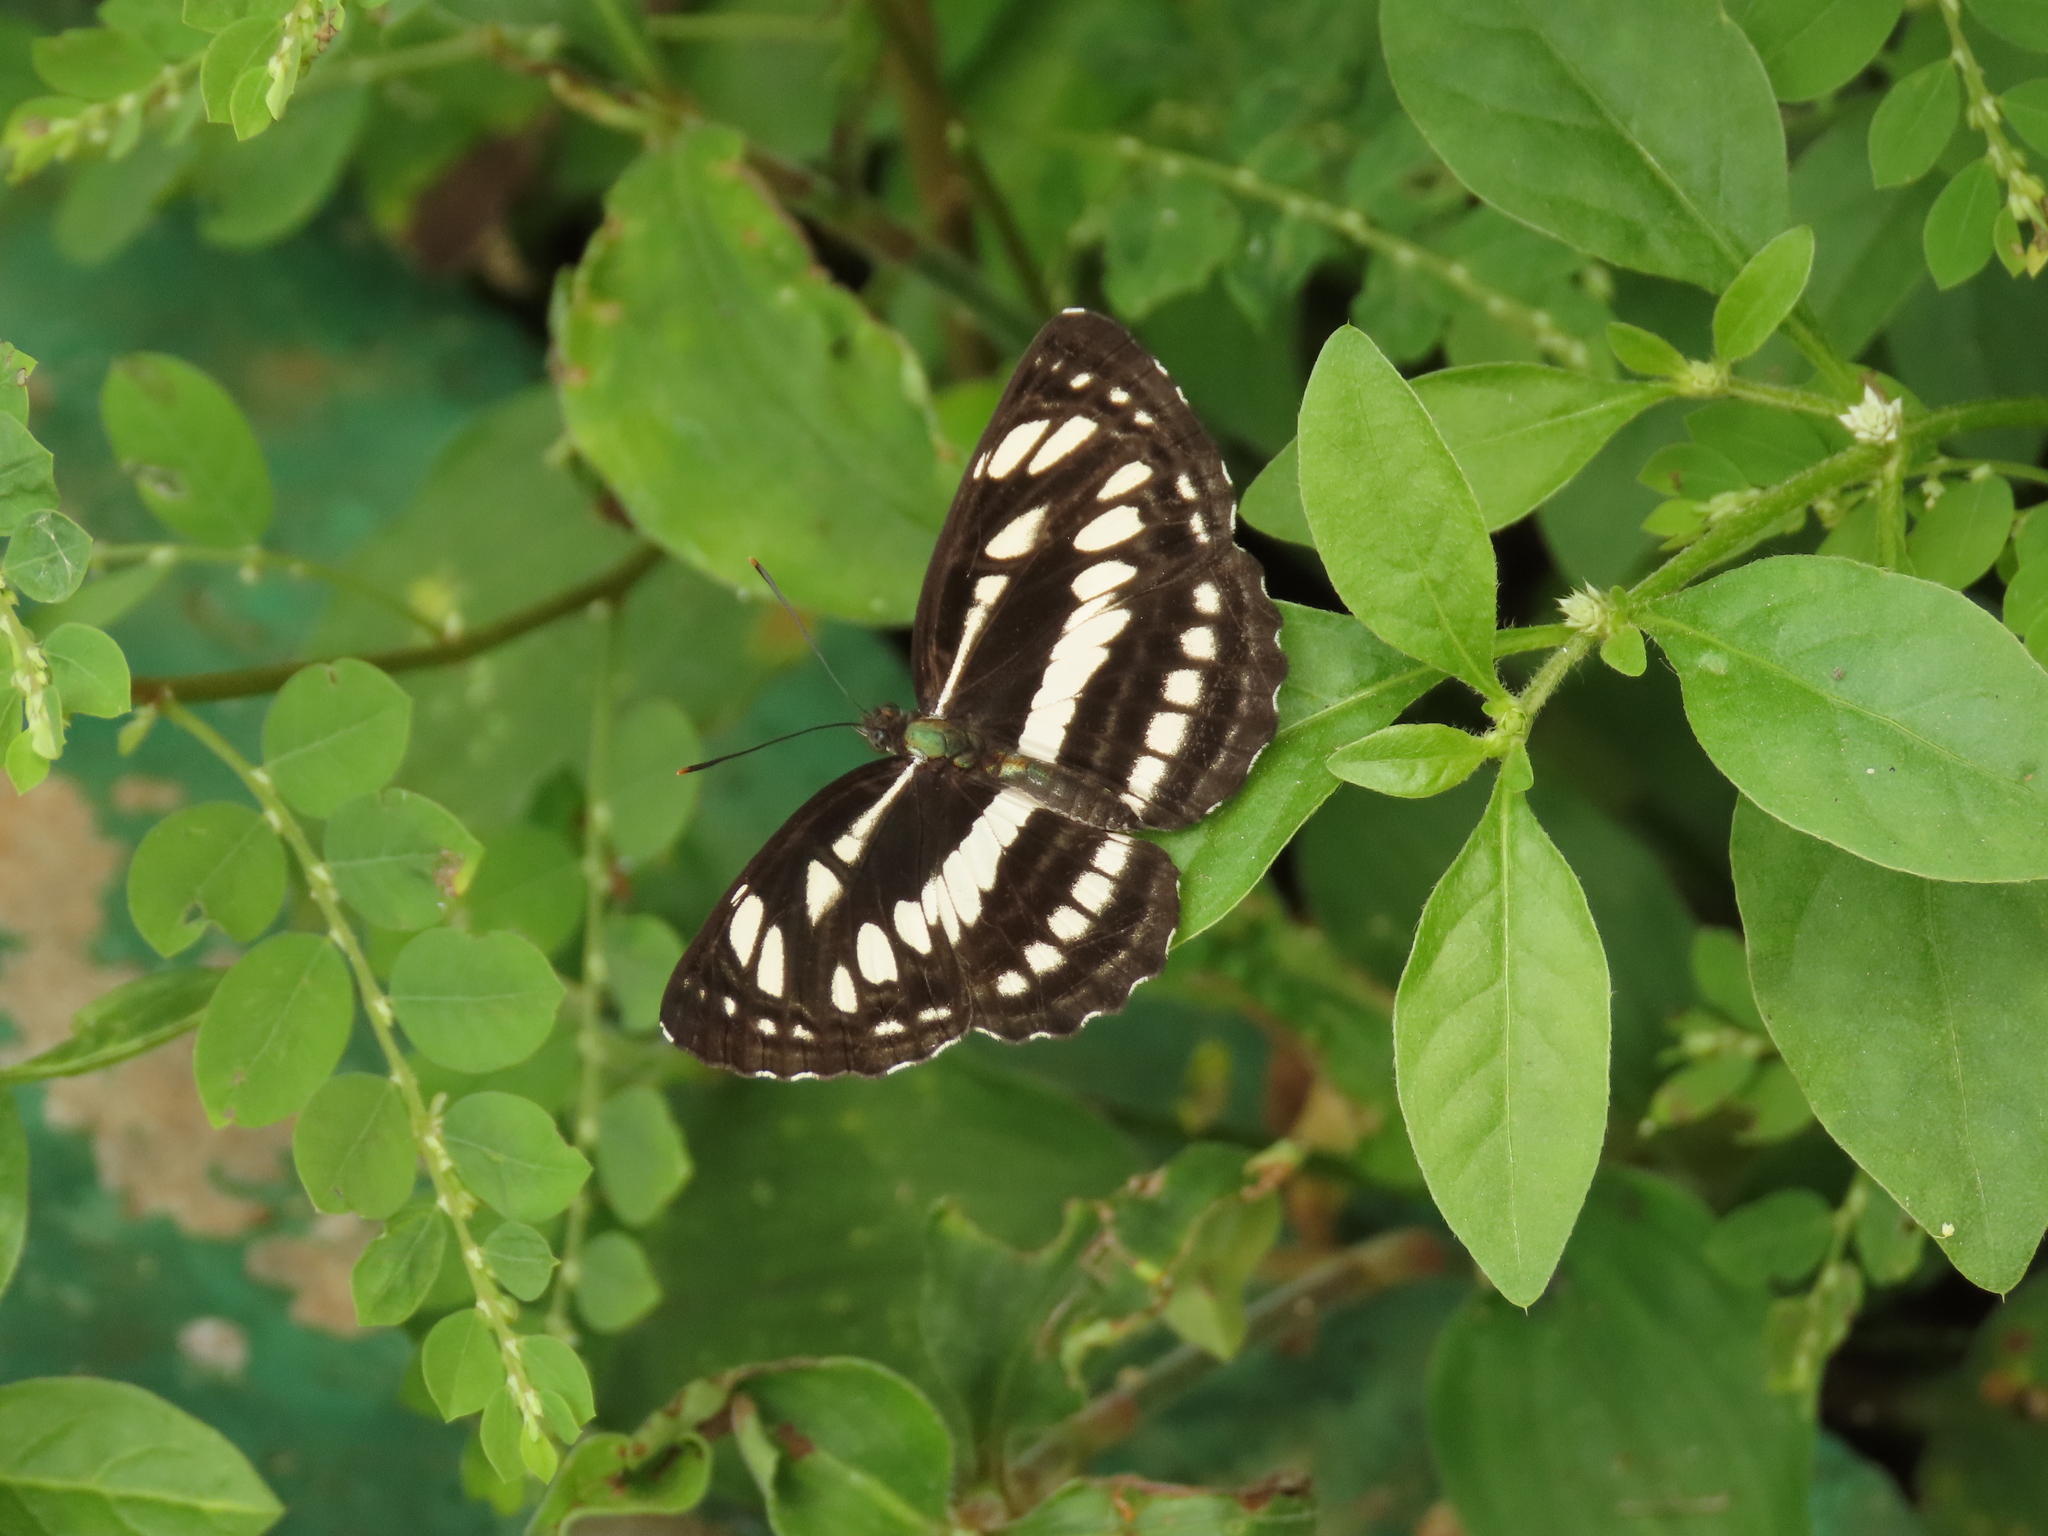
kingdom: Animalia
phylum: Arthropoda
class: Insecta
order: Lepidoptera
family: Nymphalidae
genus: Neptis
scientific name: Neptis hylas
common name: Common sailer
